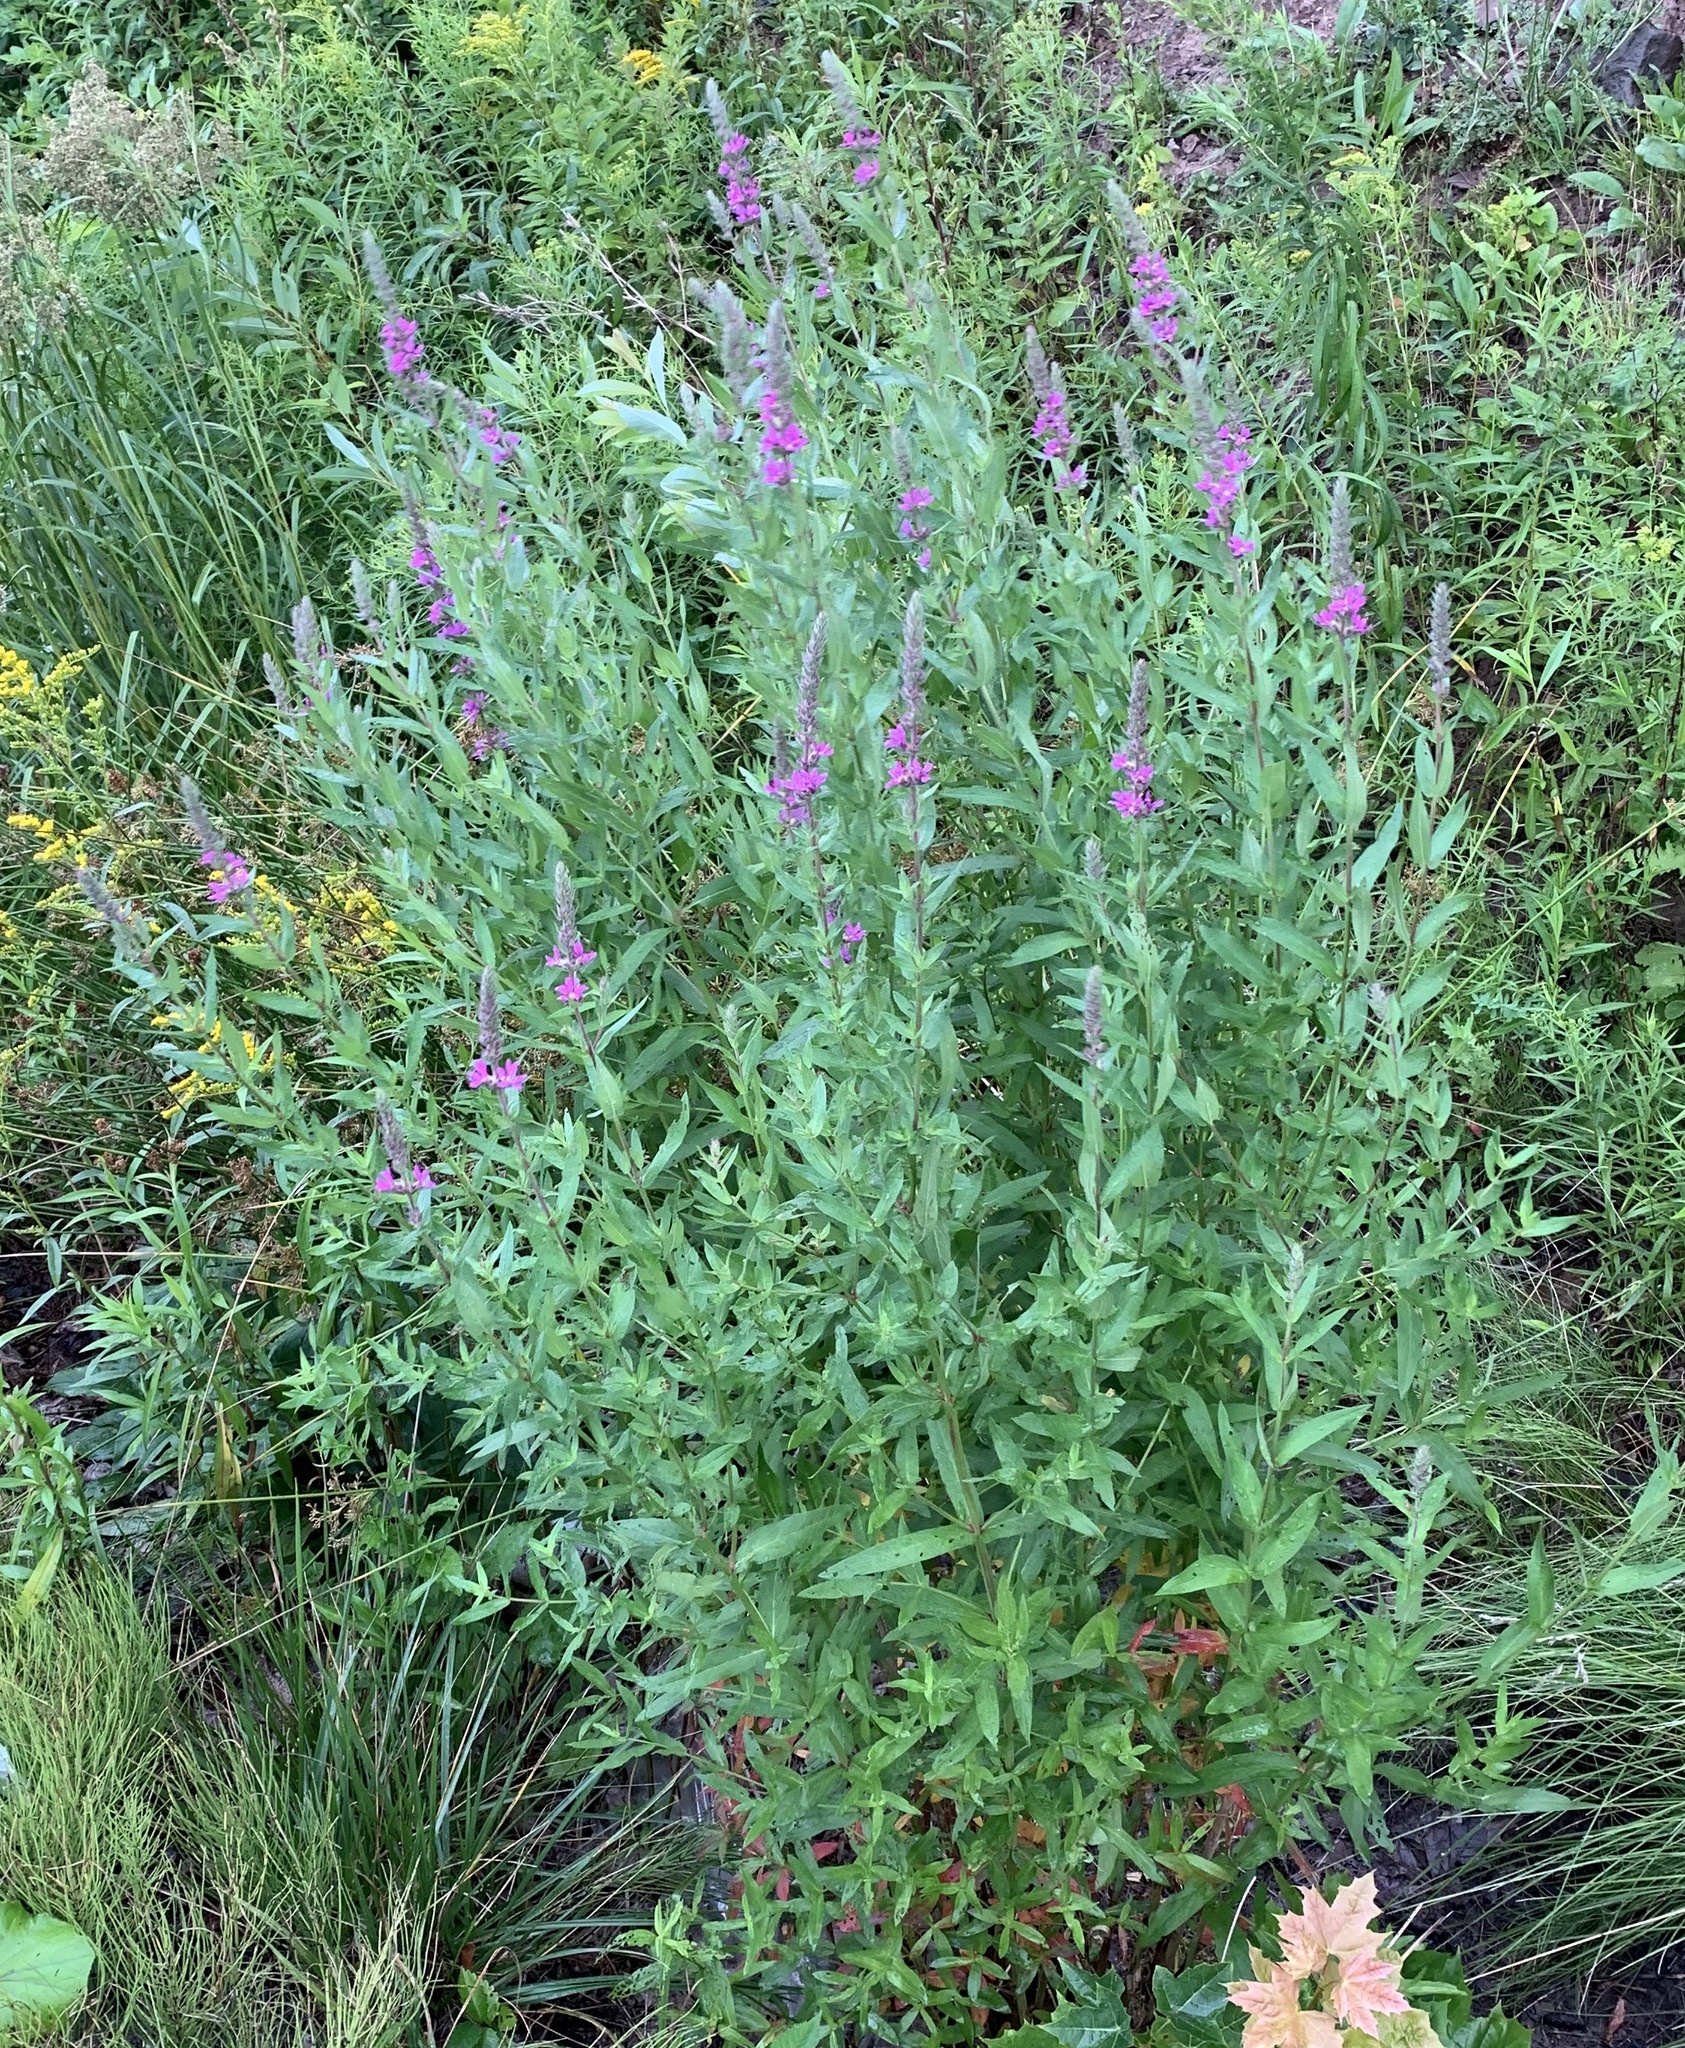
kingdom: Plantae
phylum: Tracheophyta
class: Magnoliopsida
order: Myrtales
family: Lythraceae
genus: Lythrum
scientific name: Lythrum salicaria
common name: Purple loosestrife
